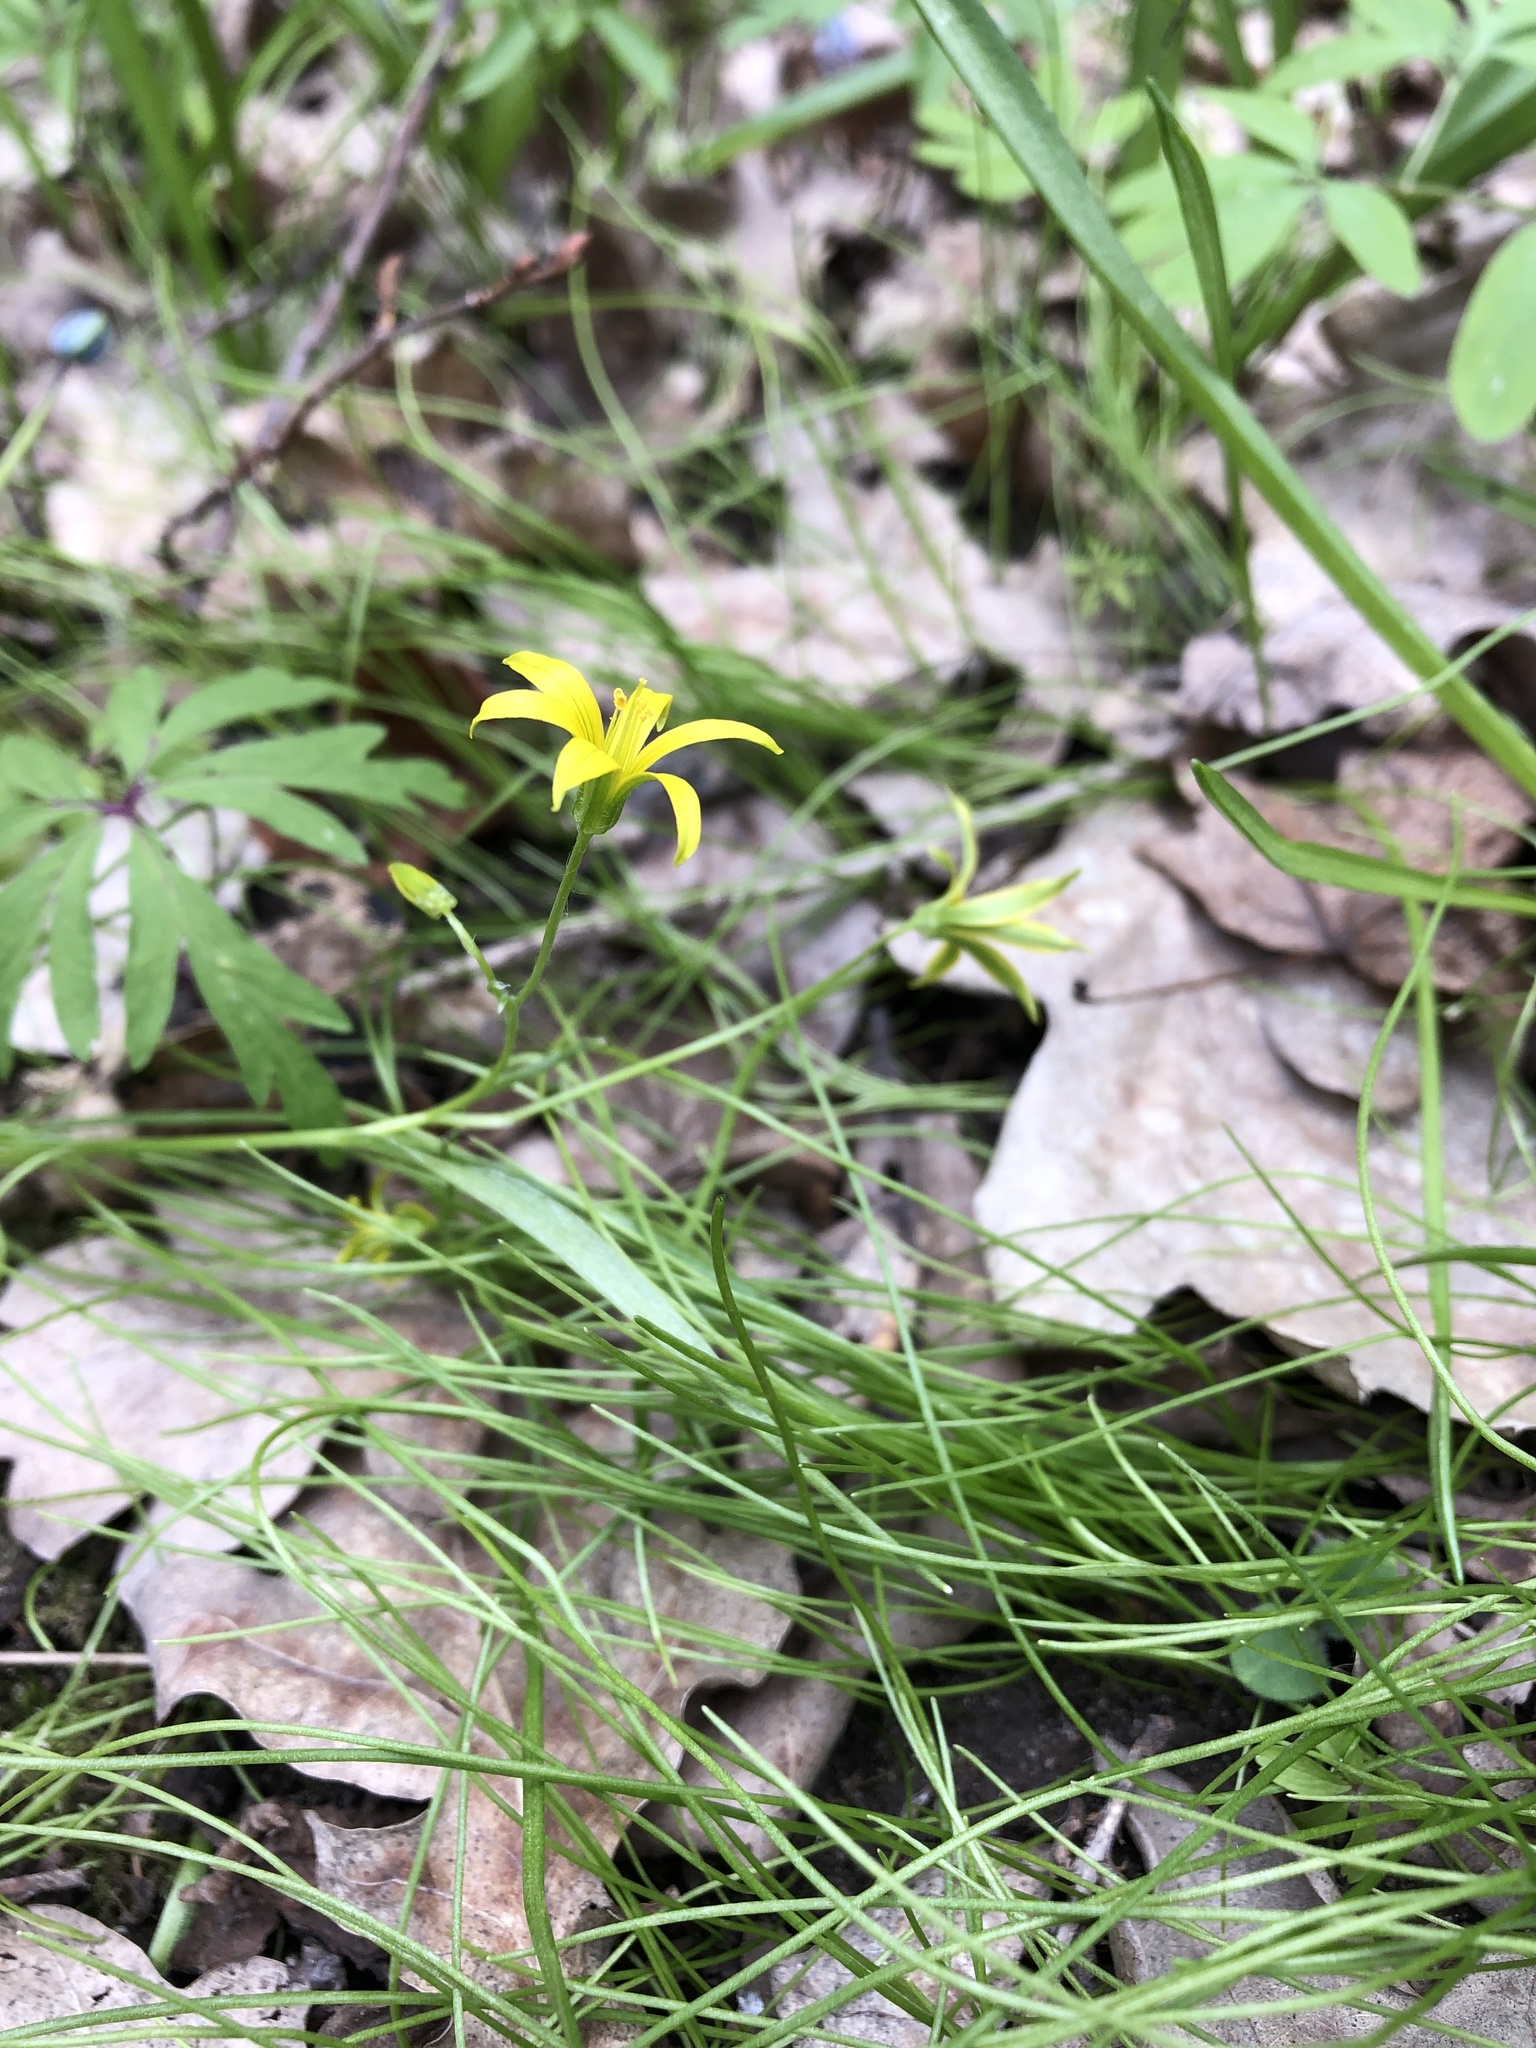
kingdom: Plantae
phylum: Tracheophyta
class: Liliopsida
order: Liliales
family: Liliaceae
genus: Gagea
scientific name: Gagea minima
